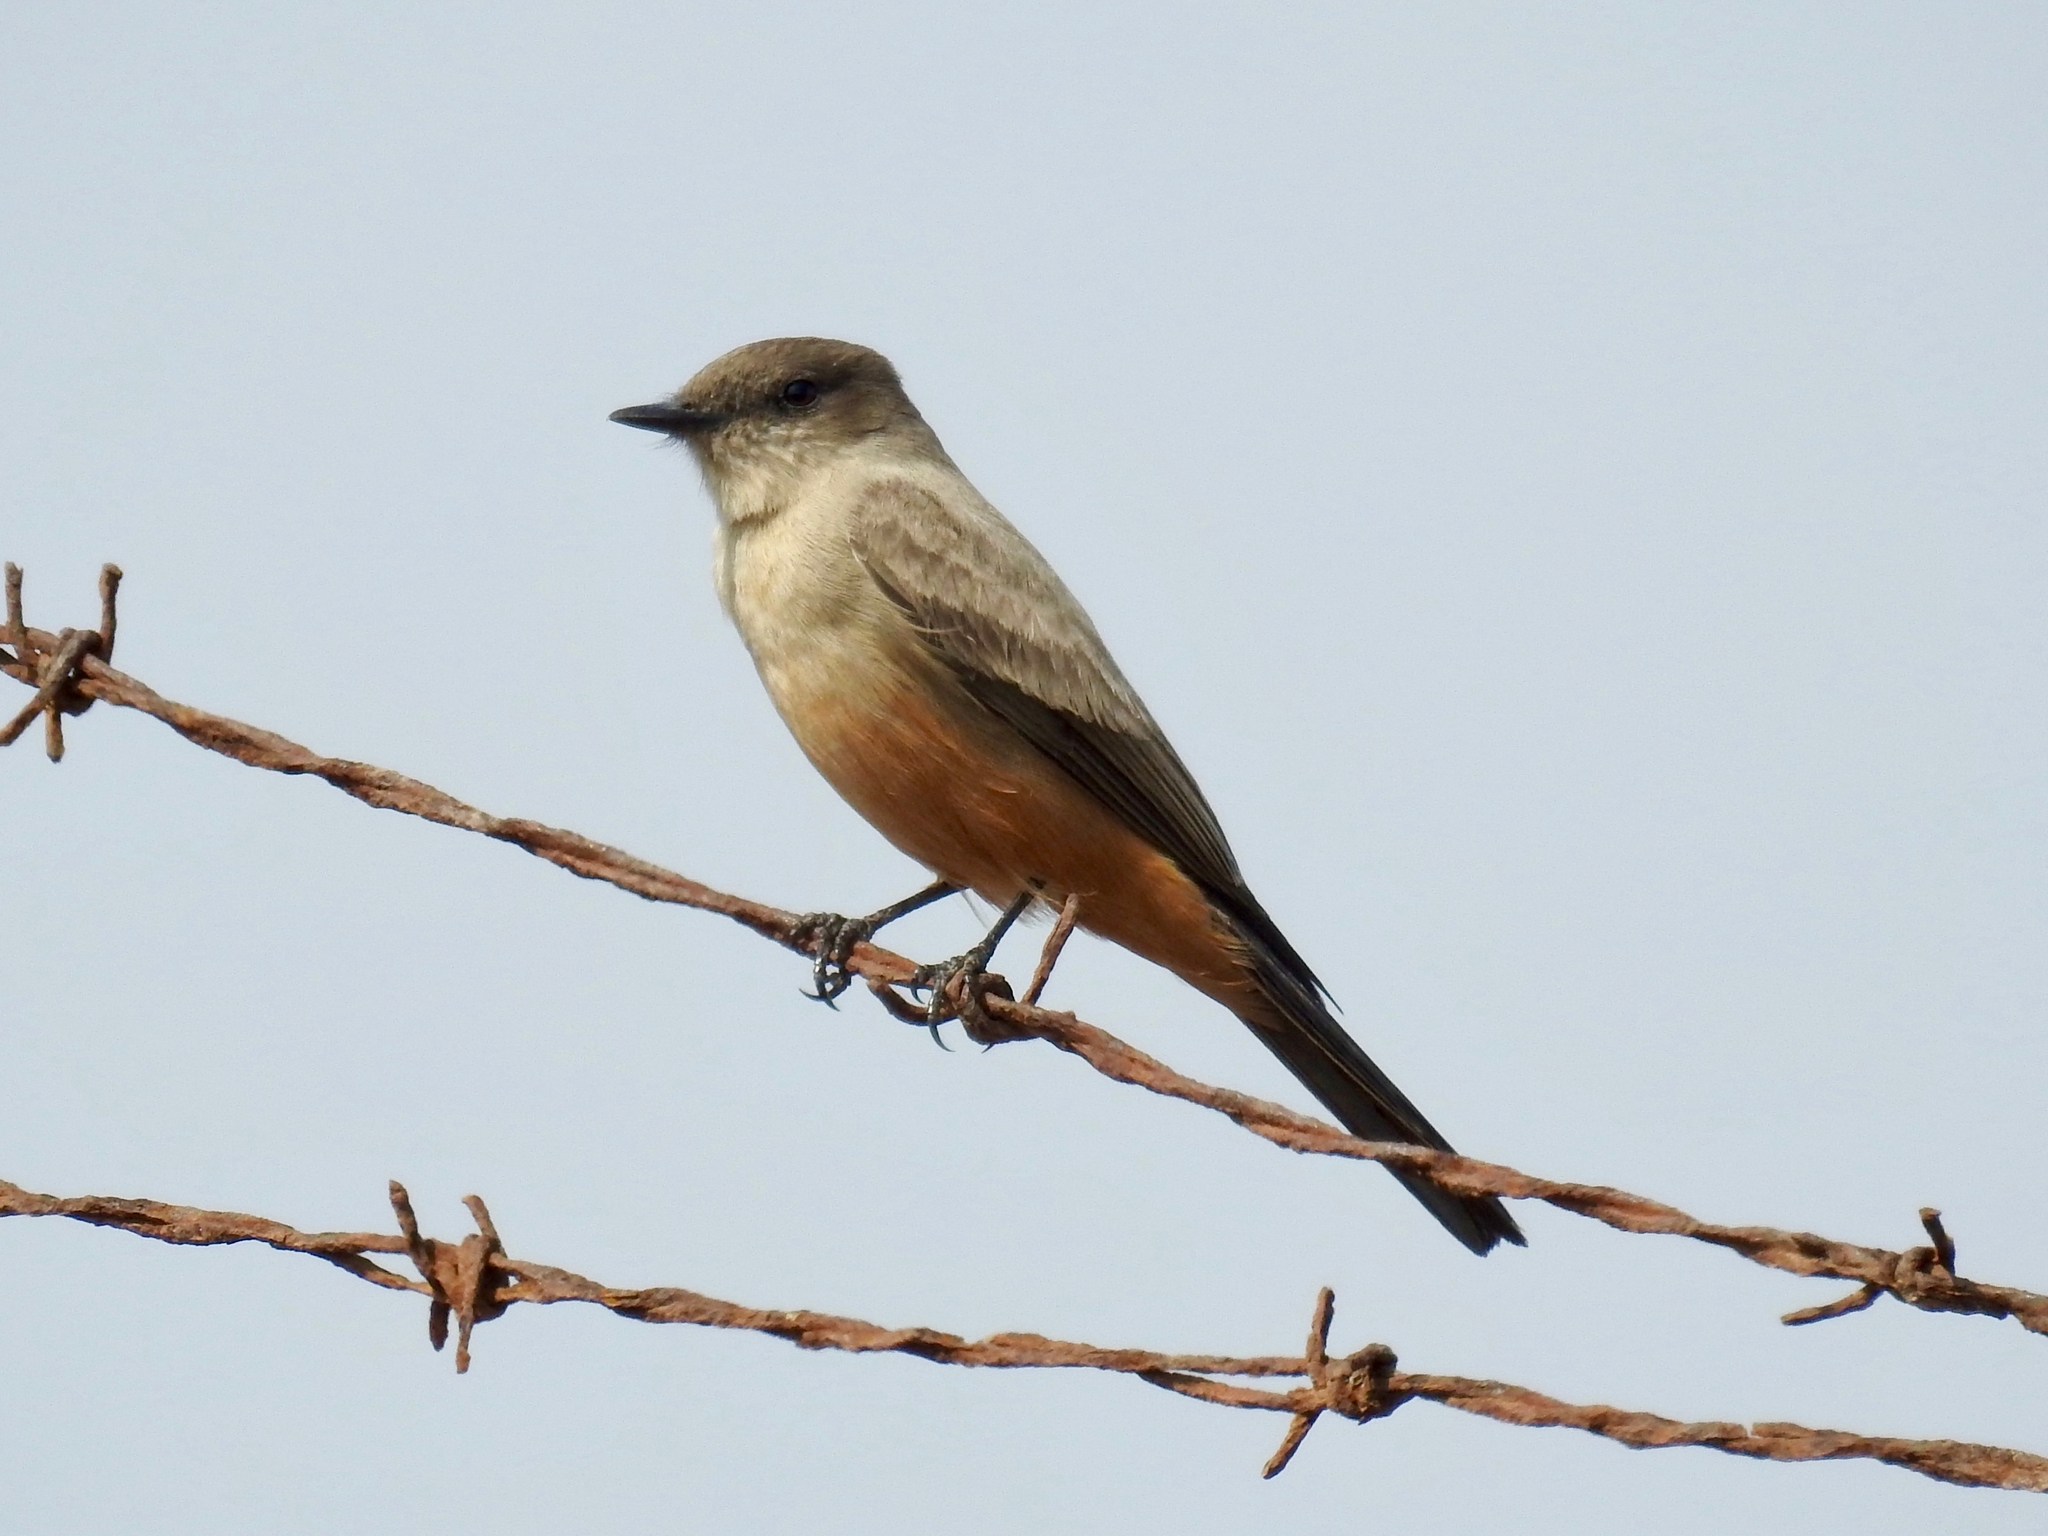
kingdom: Animalia
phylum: Chordata
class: Aves
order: Passeriformes
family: Tyrannidae
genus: Sayornis
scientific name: Sayornis saya
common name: Say's phoebe
